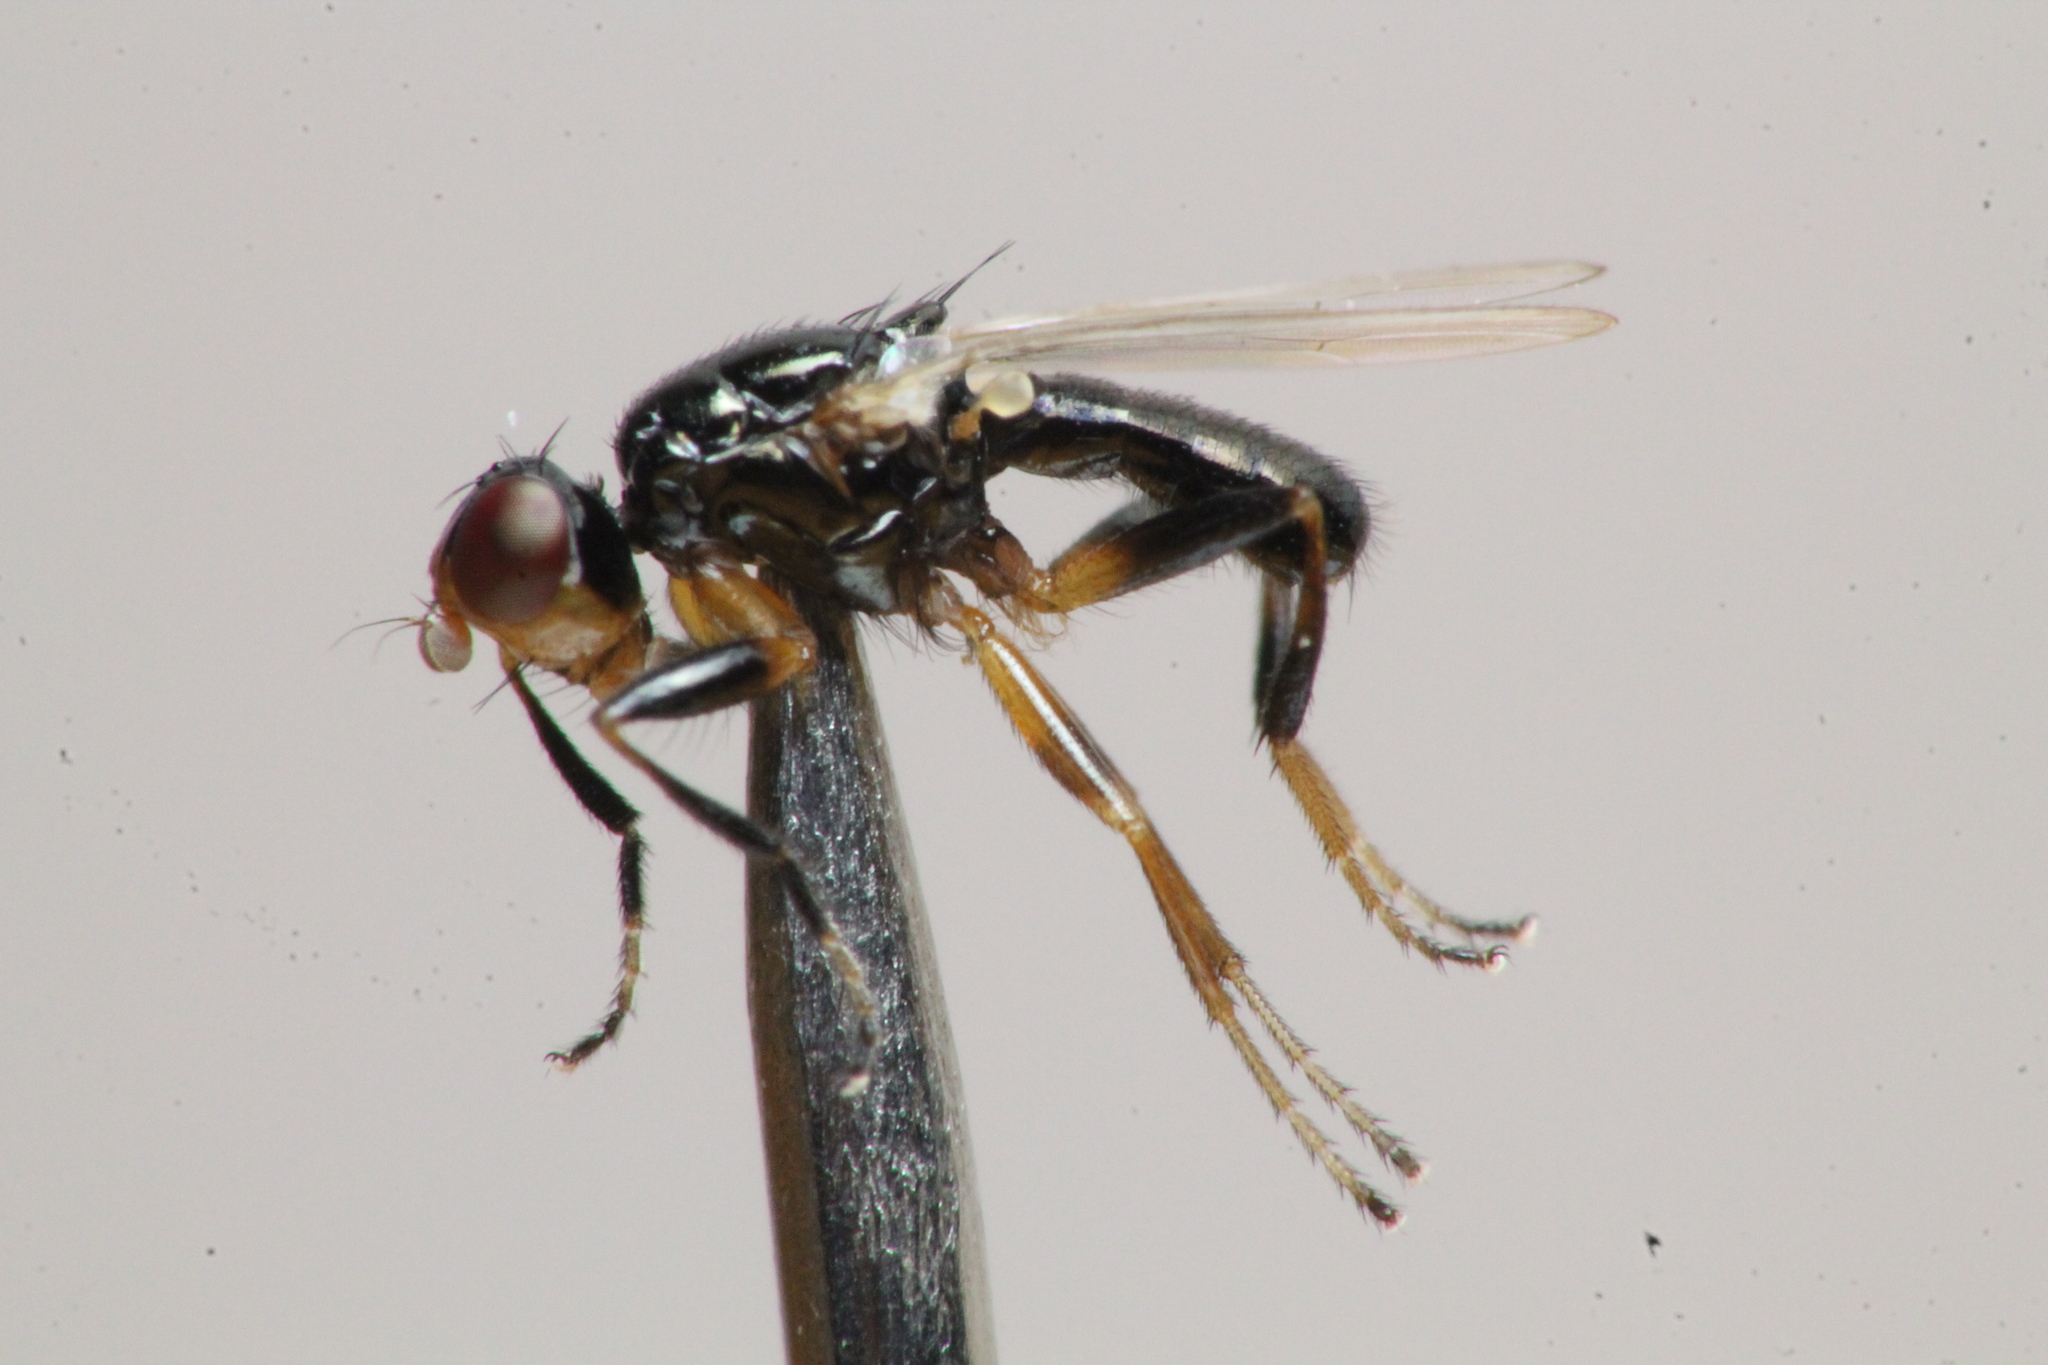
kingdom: Animalia
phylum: Arthropoda
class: Insecta
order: Diptera
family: Piophilidae
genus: Piophila
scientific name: Piophila casei
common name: Cheese skipper
